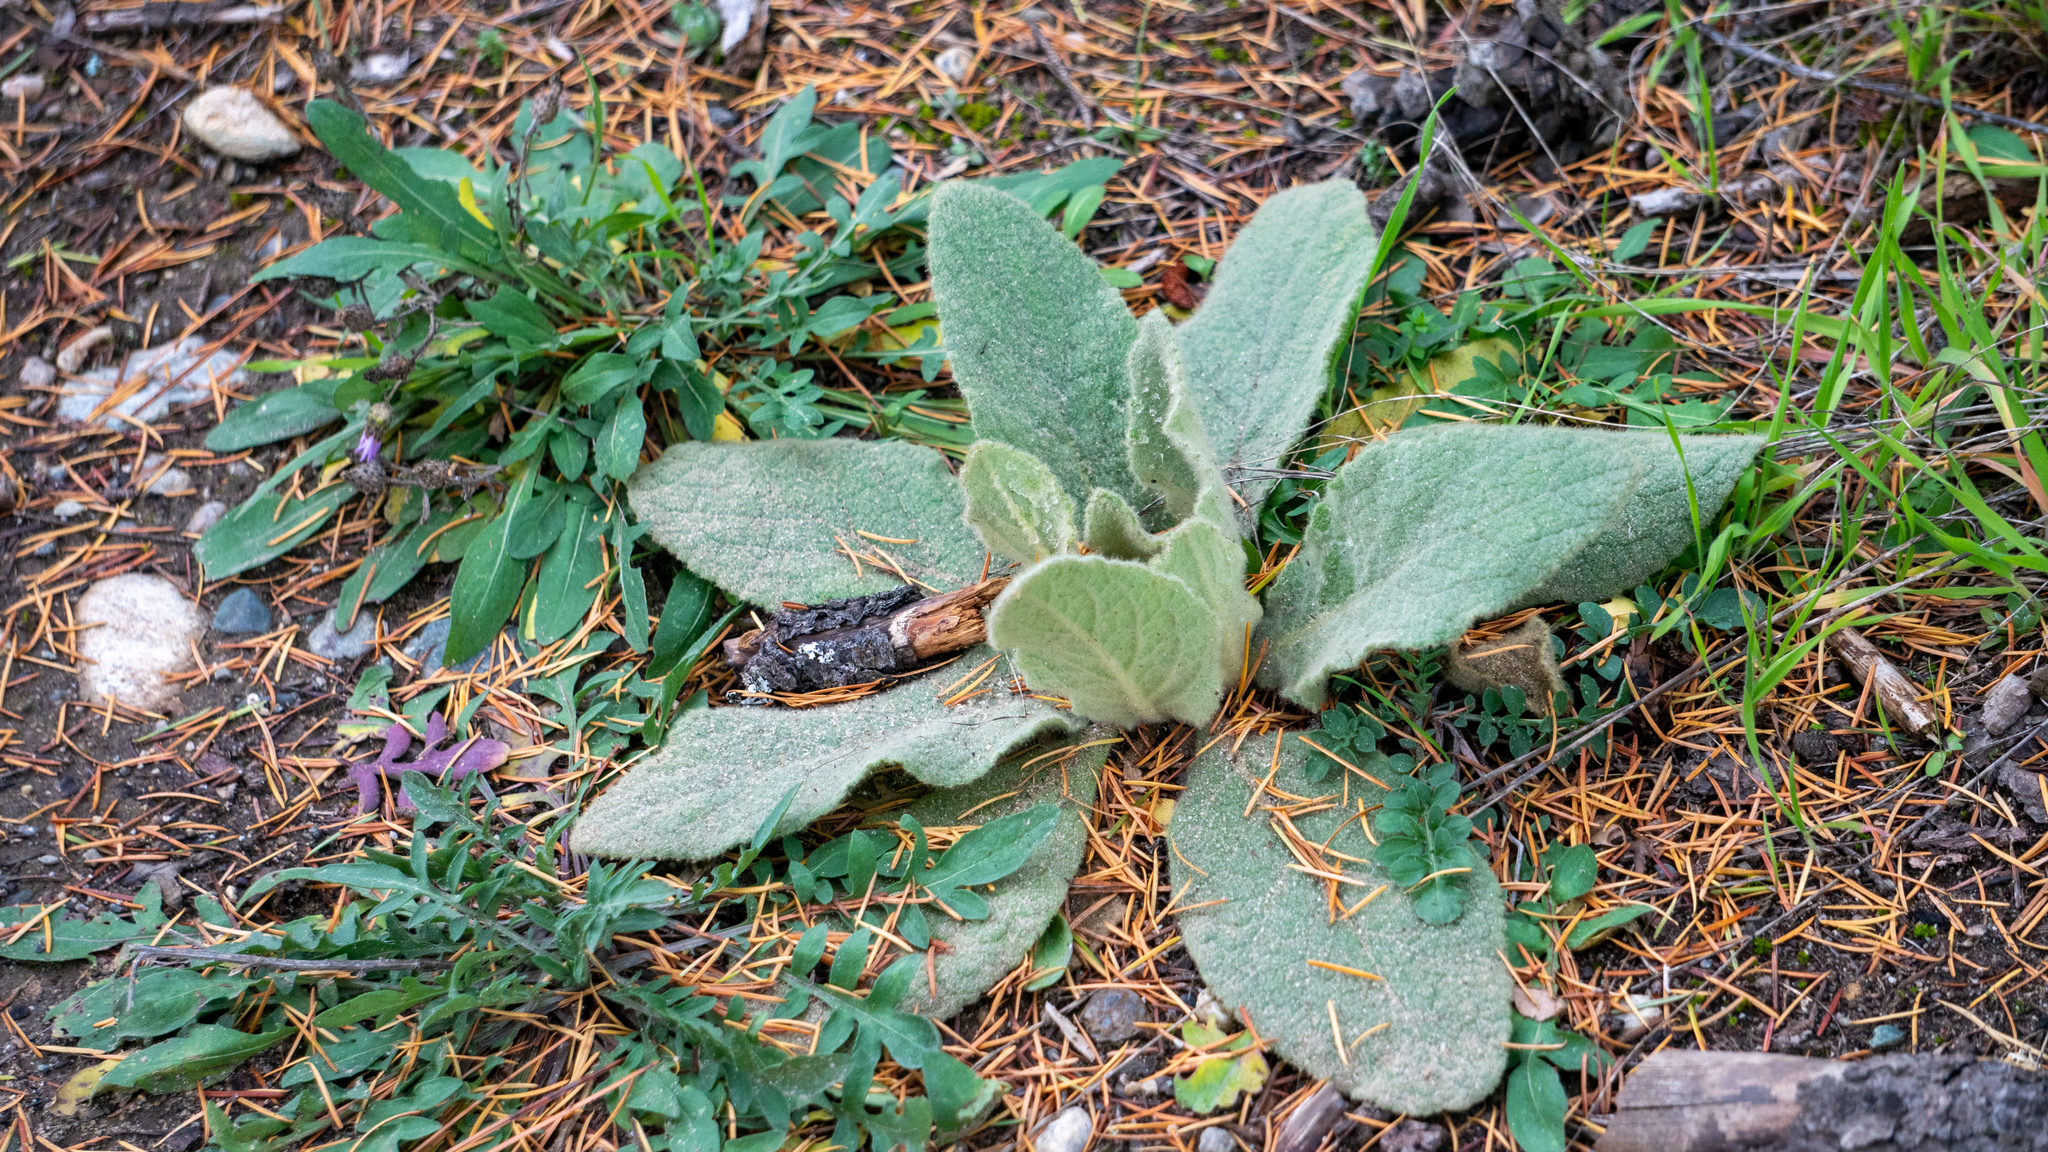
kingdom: Plantae
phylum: Tracheophyta
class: Magnoliopsida
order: Lamiales
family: Scrophulariaceae
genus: Verbascum
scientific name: Verbascum thapsus
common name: Common mullein
